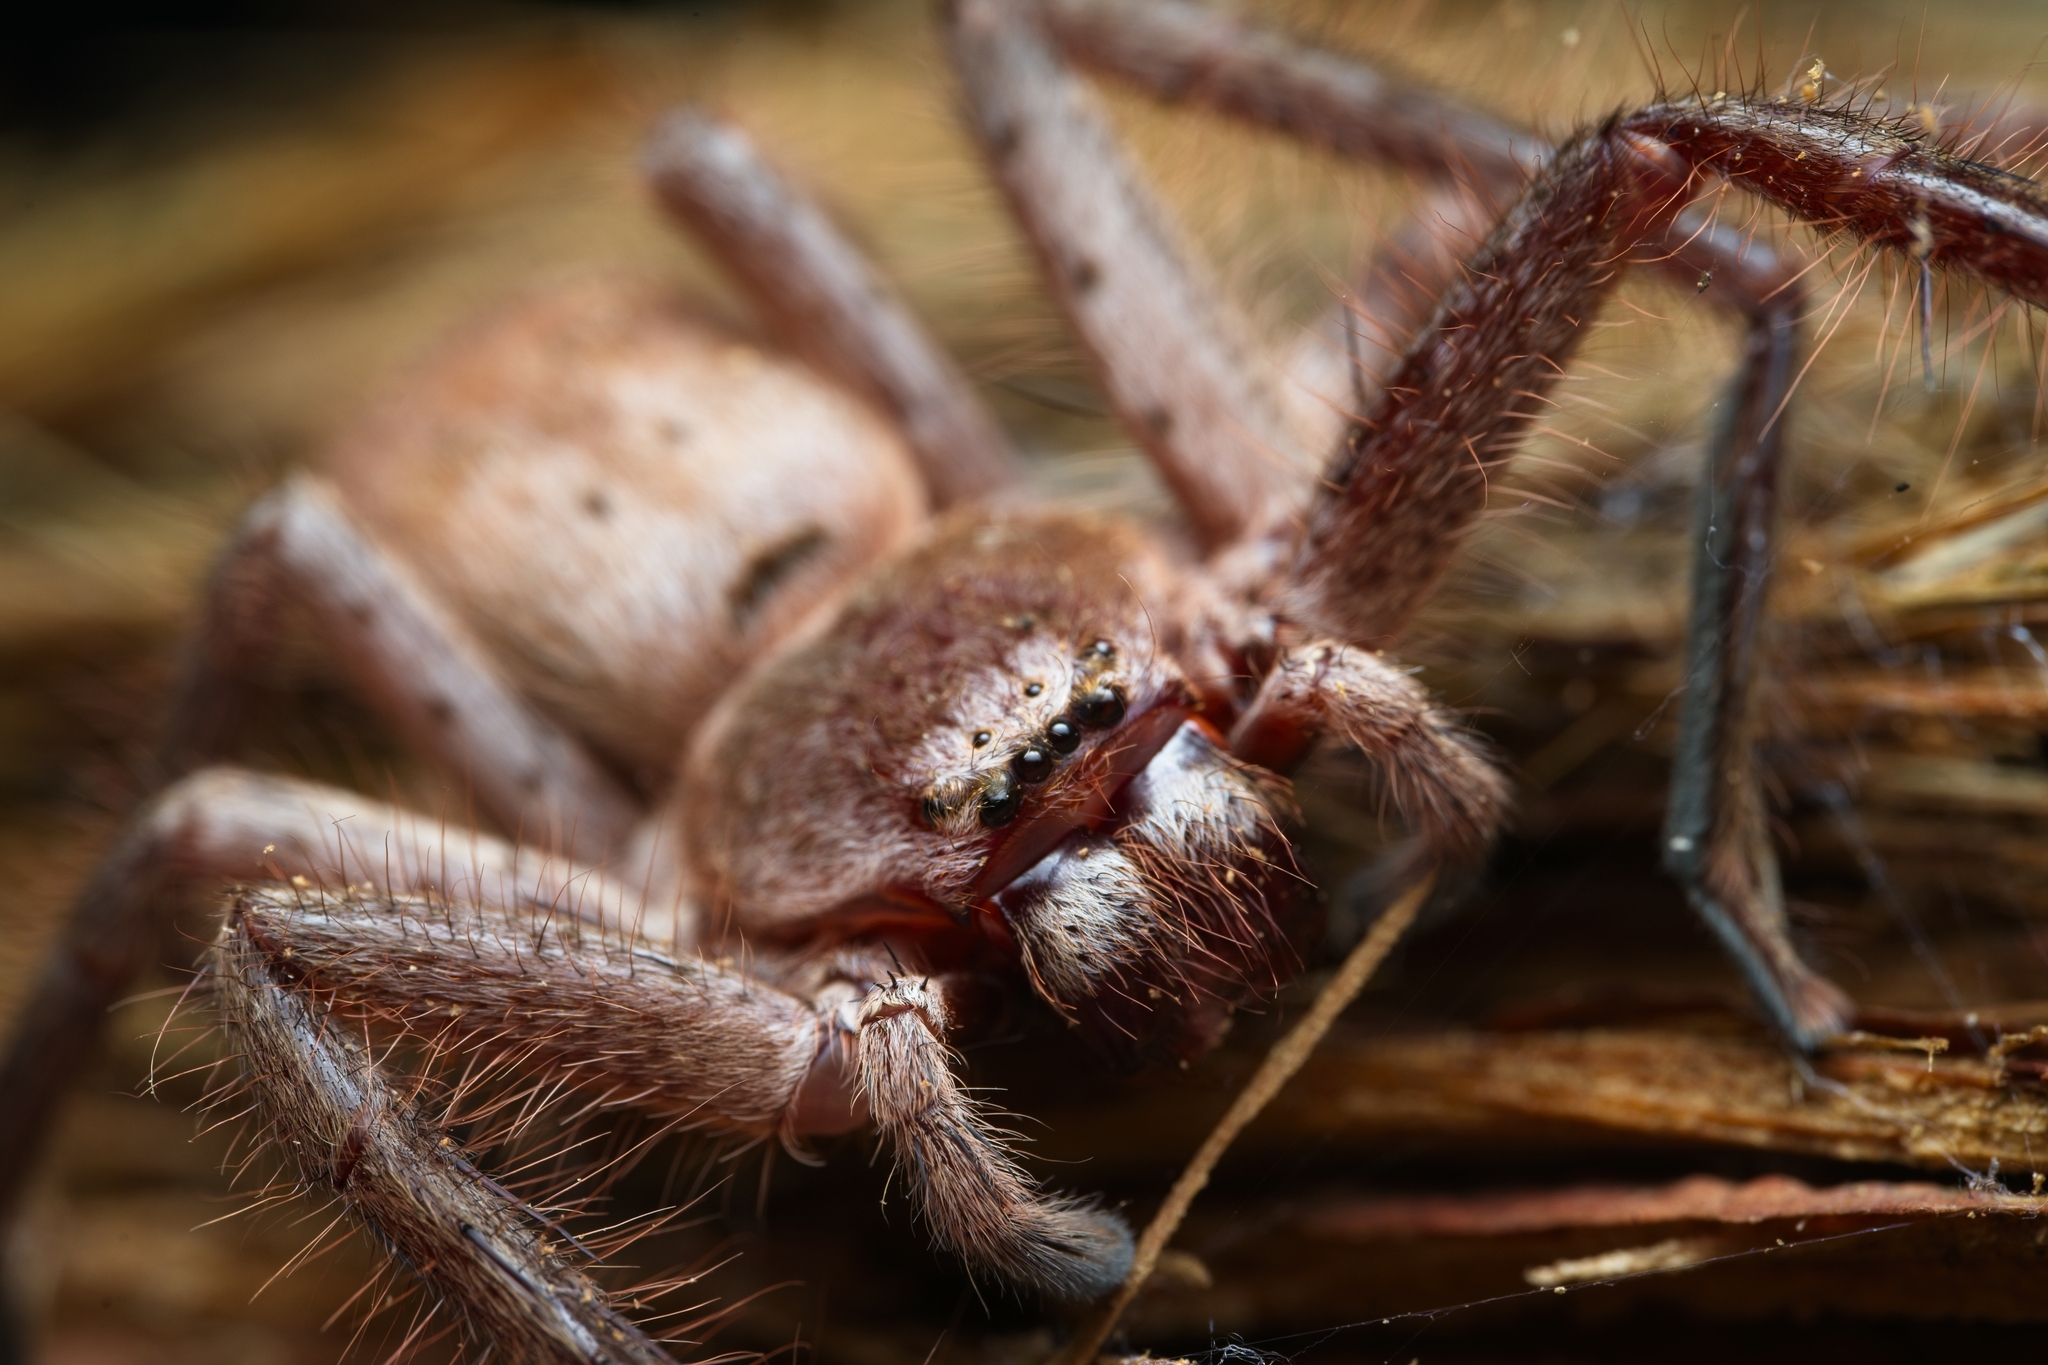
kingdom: Animalia
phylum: Arthropoda
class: Arachnida
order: Araneae
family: Sparassidae
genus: Isopeda
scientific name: Isopeda villosa
